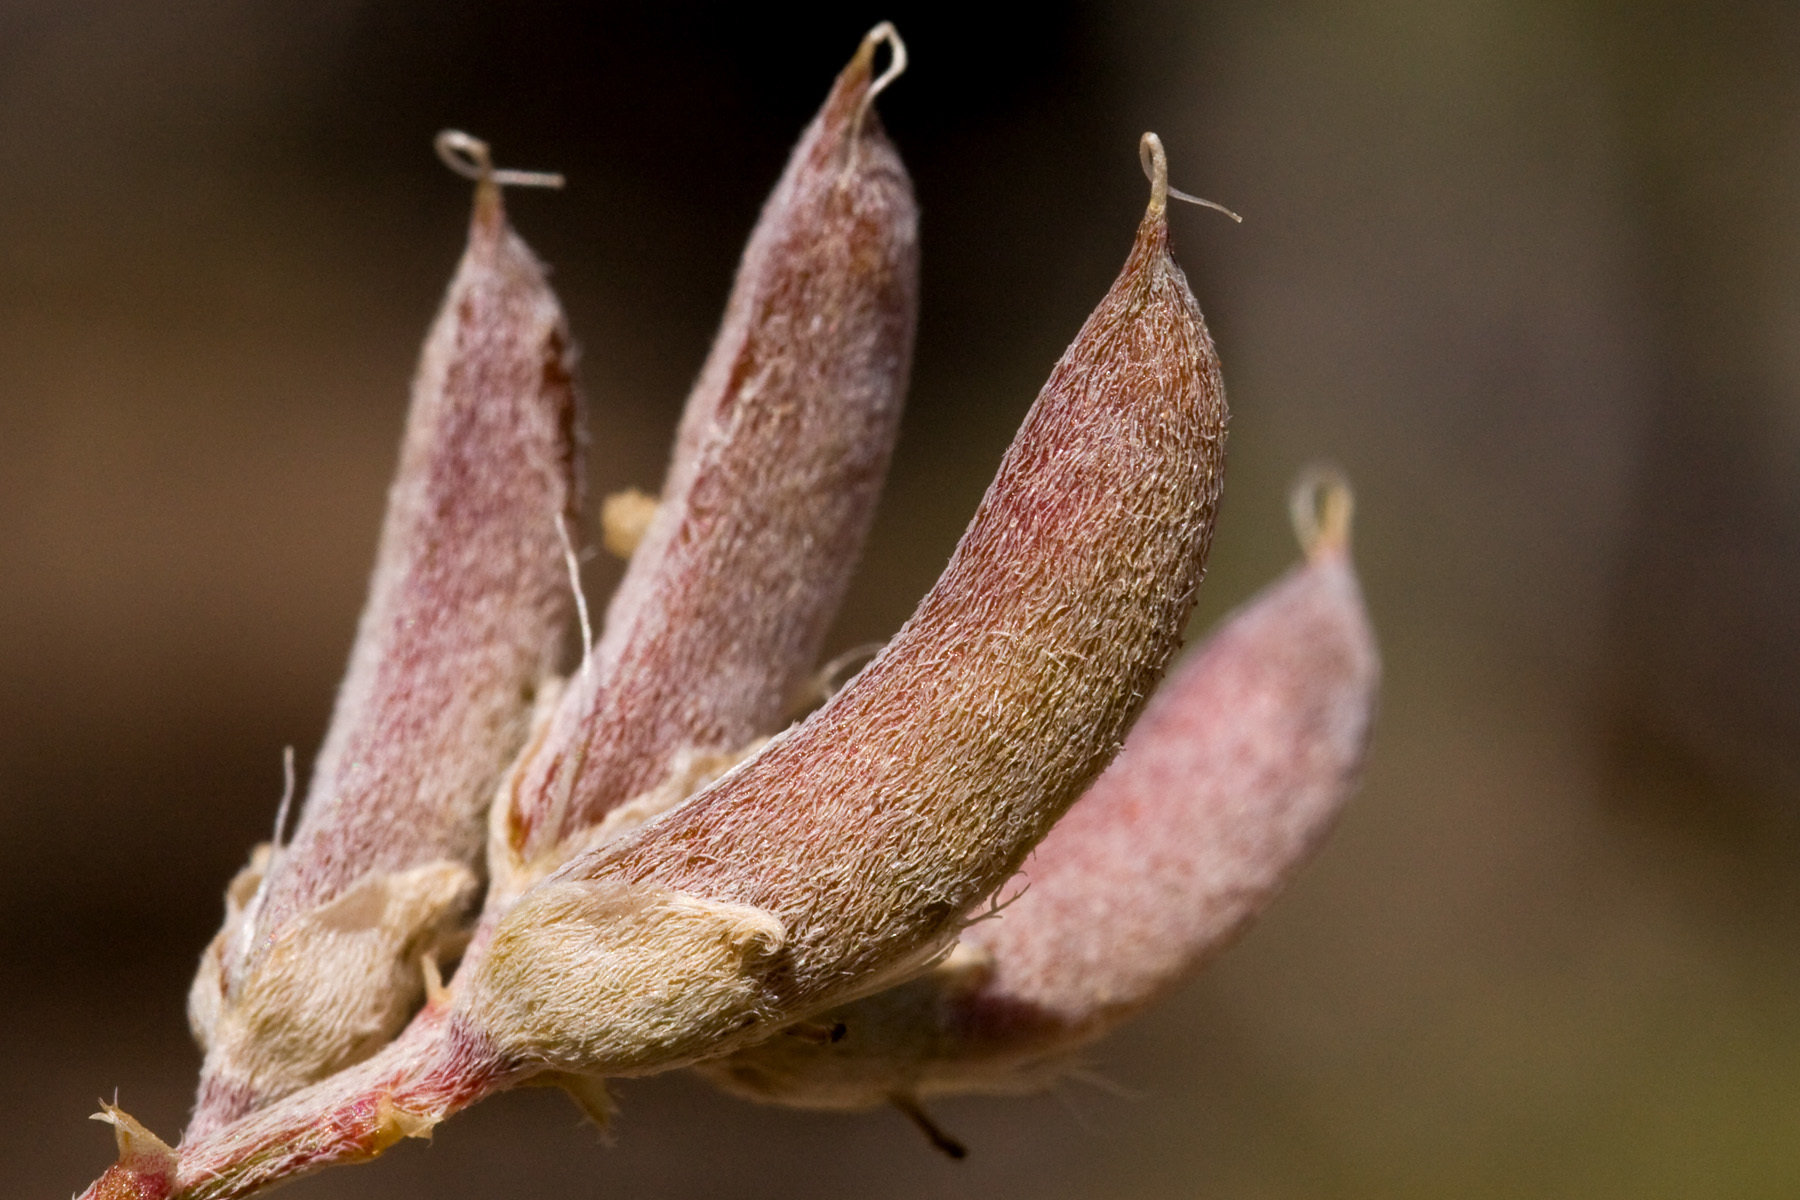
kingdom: Plantae
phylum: Tracheophyta
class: Magnoliopsida
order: Fabales
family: Fabaceae
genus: Astragalus
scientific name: Astragalus amphioxys
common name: Crescent milk-vetch
